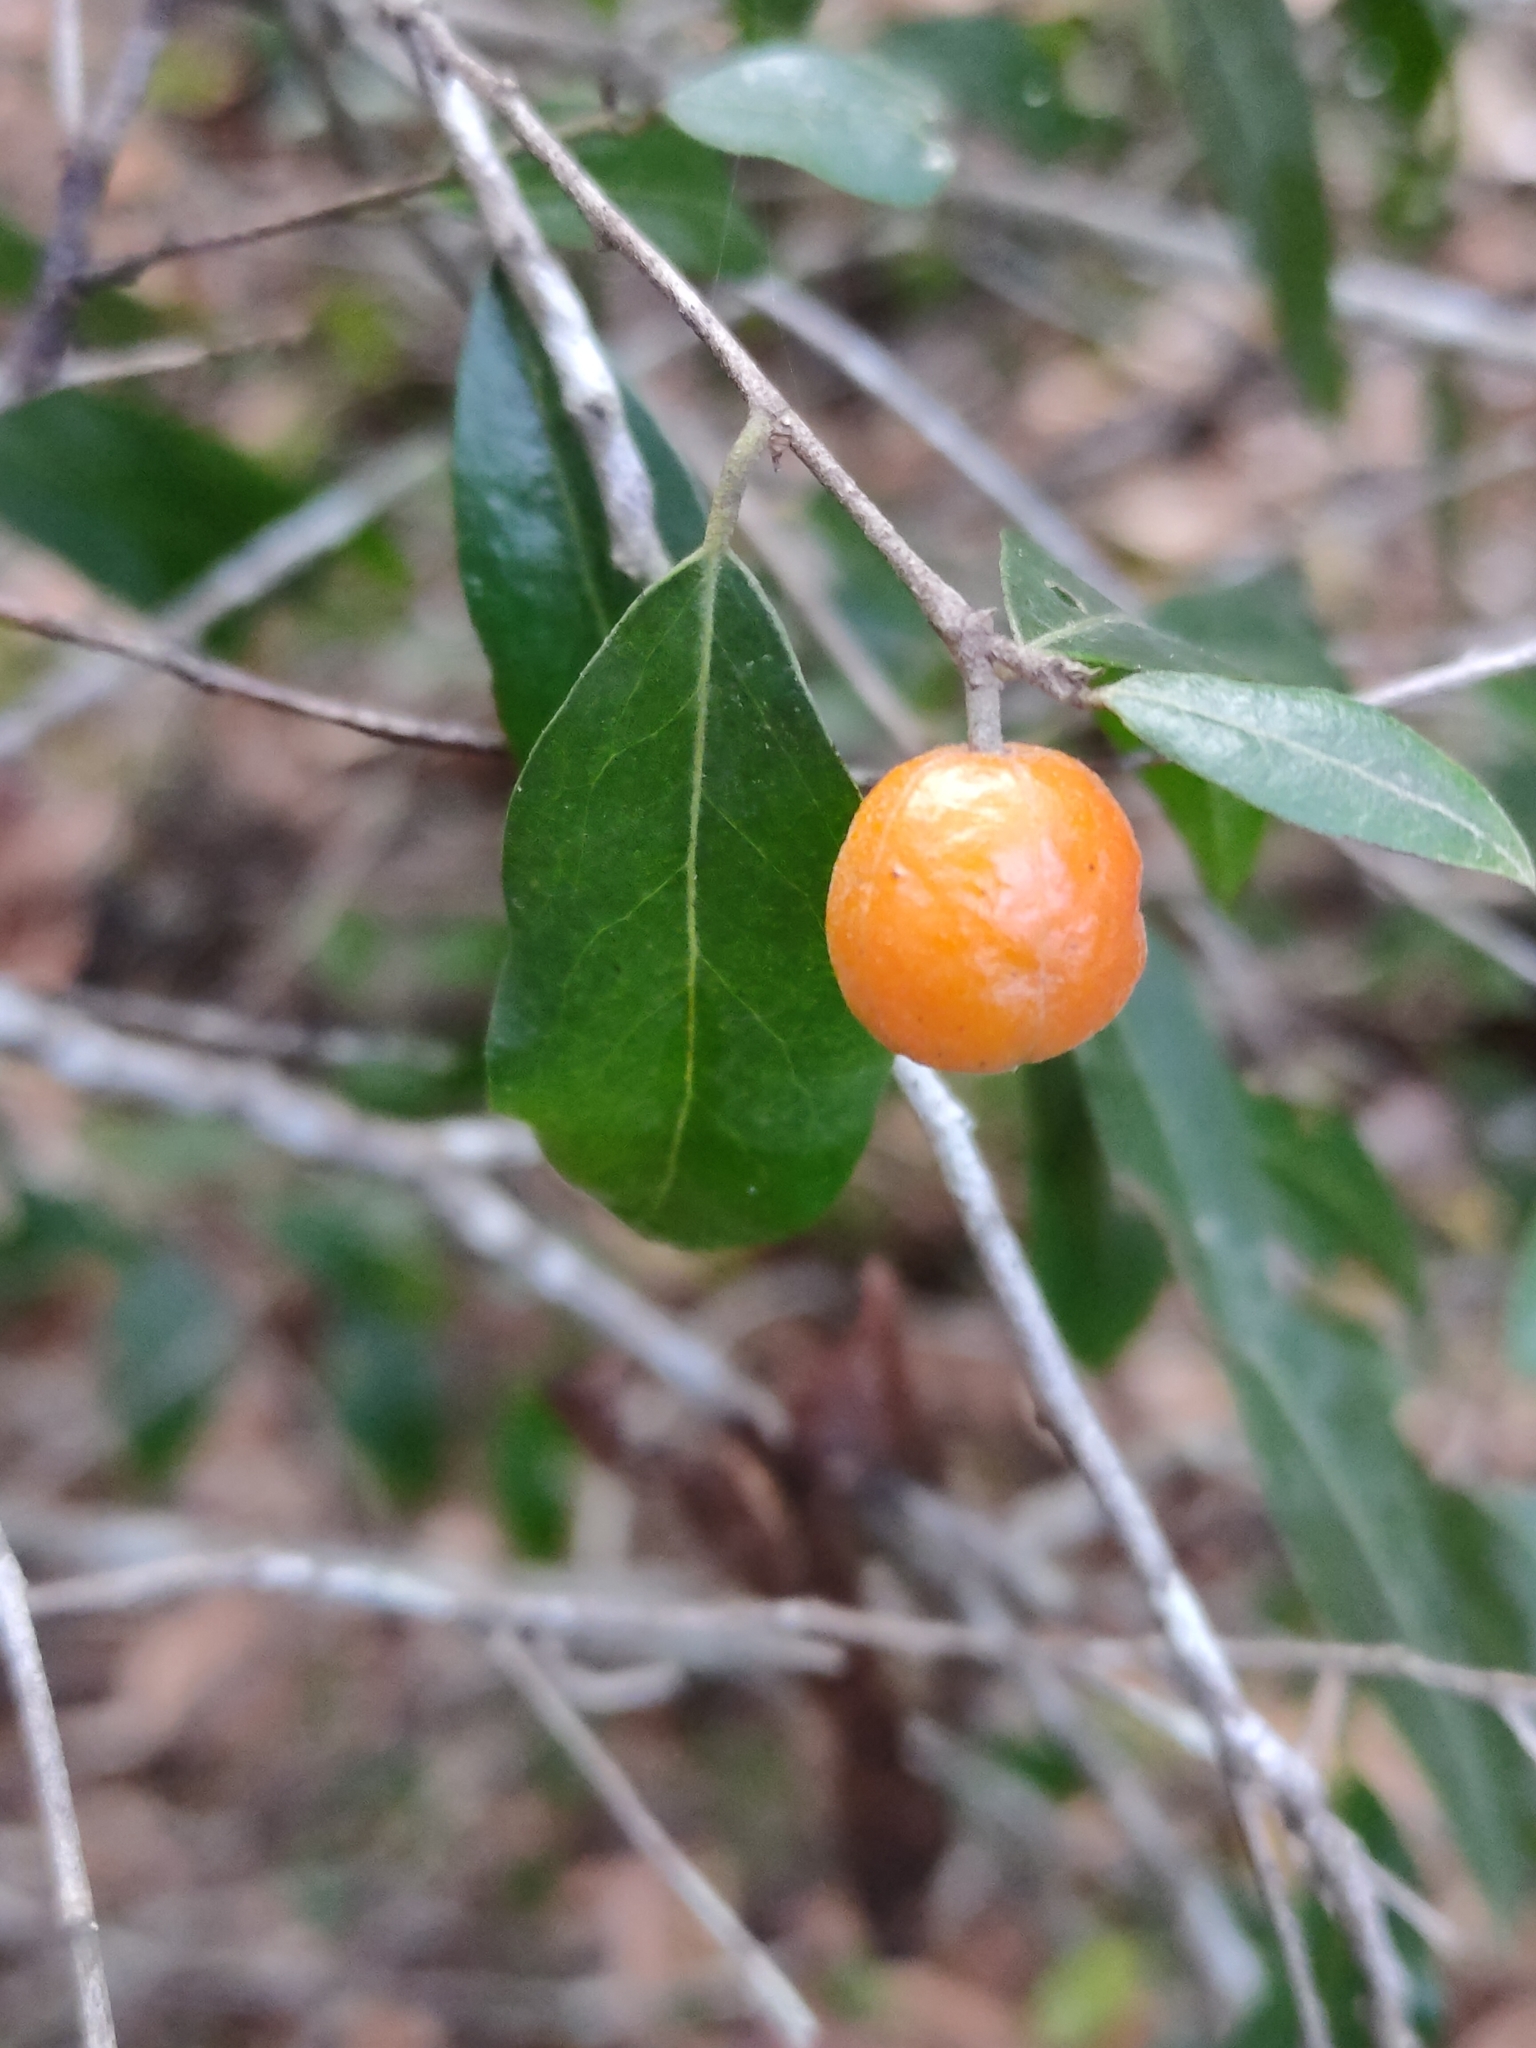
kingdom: Plantae
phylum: Tracheophyta
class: Magnoliopsida
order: Malpighiales
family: Picrodendraceae
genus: Petalostigma
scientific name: Petalostigma triloculare
